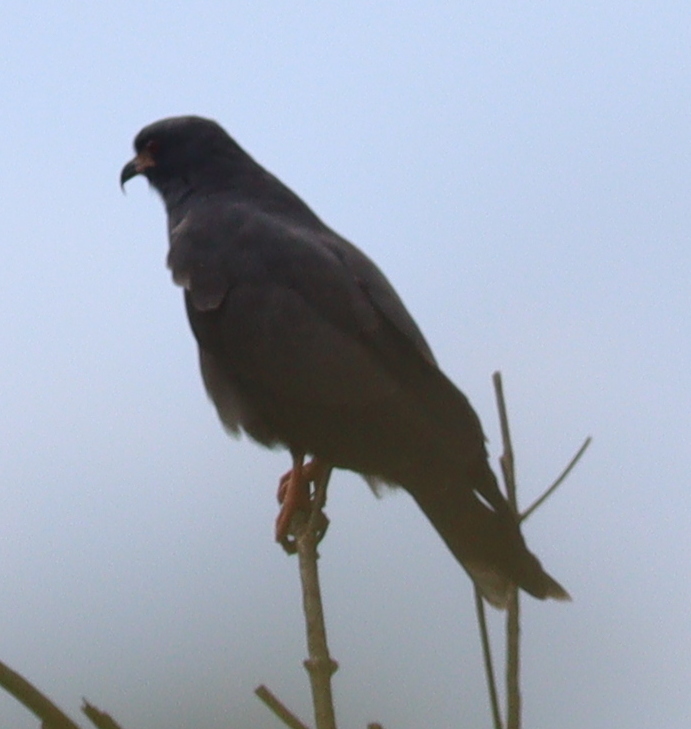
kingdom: Animalia
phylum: Chordata
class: Aves
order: Accipitriformes
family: Accipitridae
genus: Rostrhamus
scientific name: Rostrhamus sociabilis
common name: Snail kite
